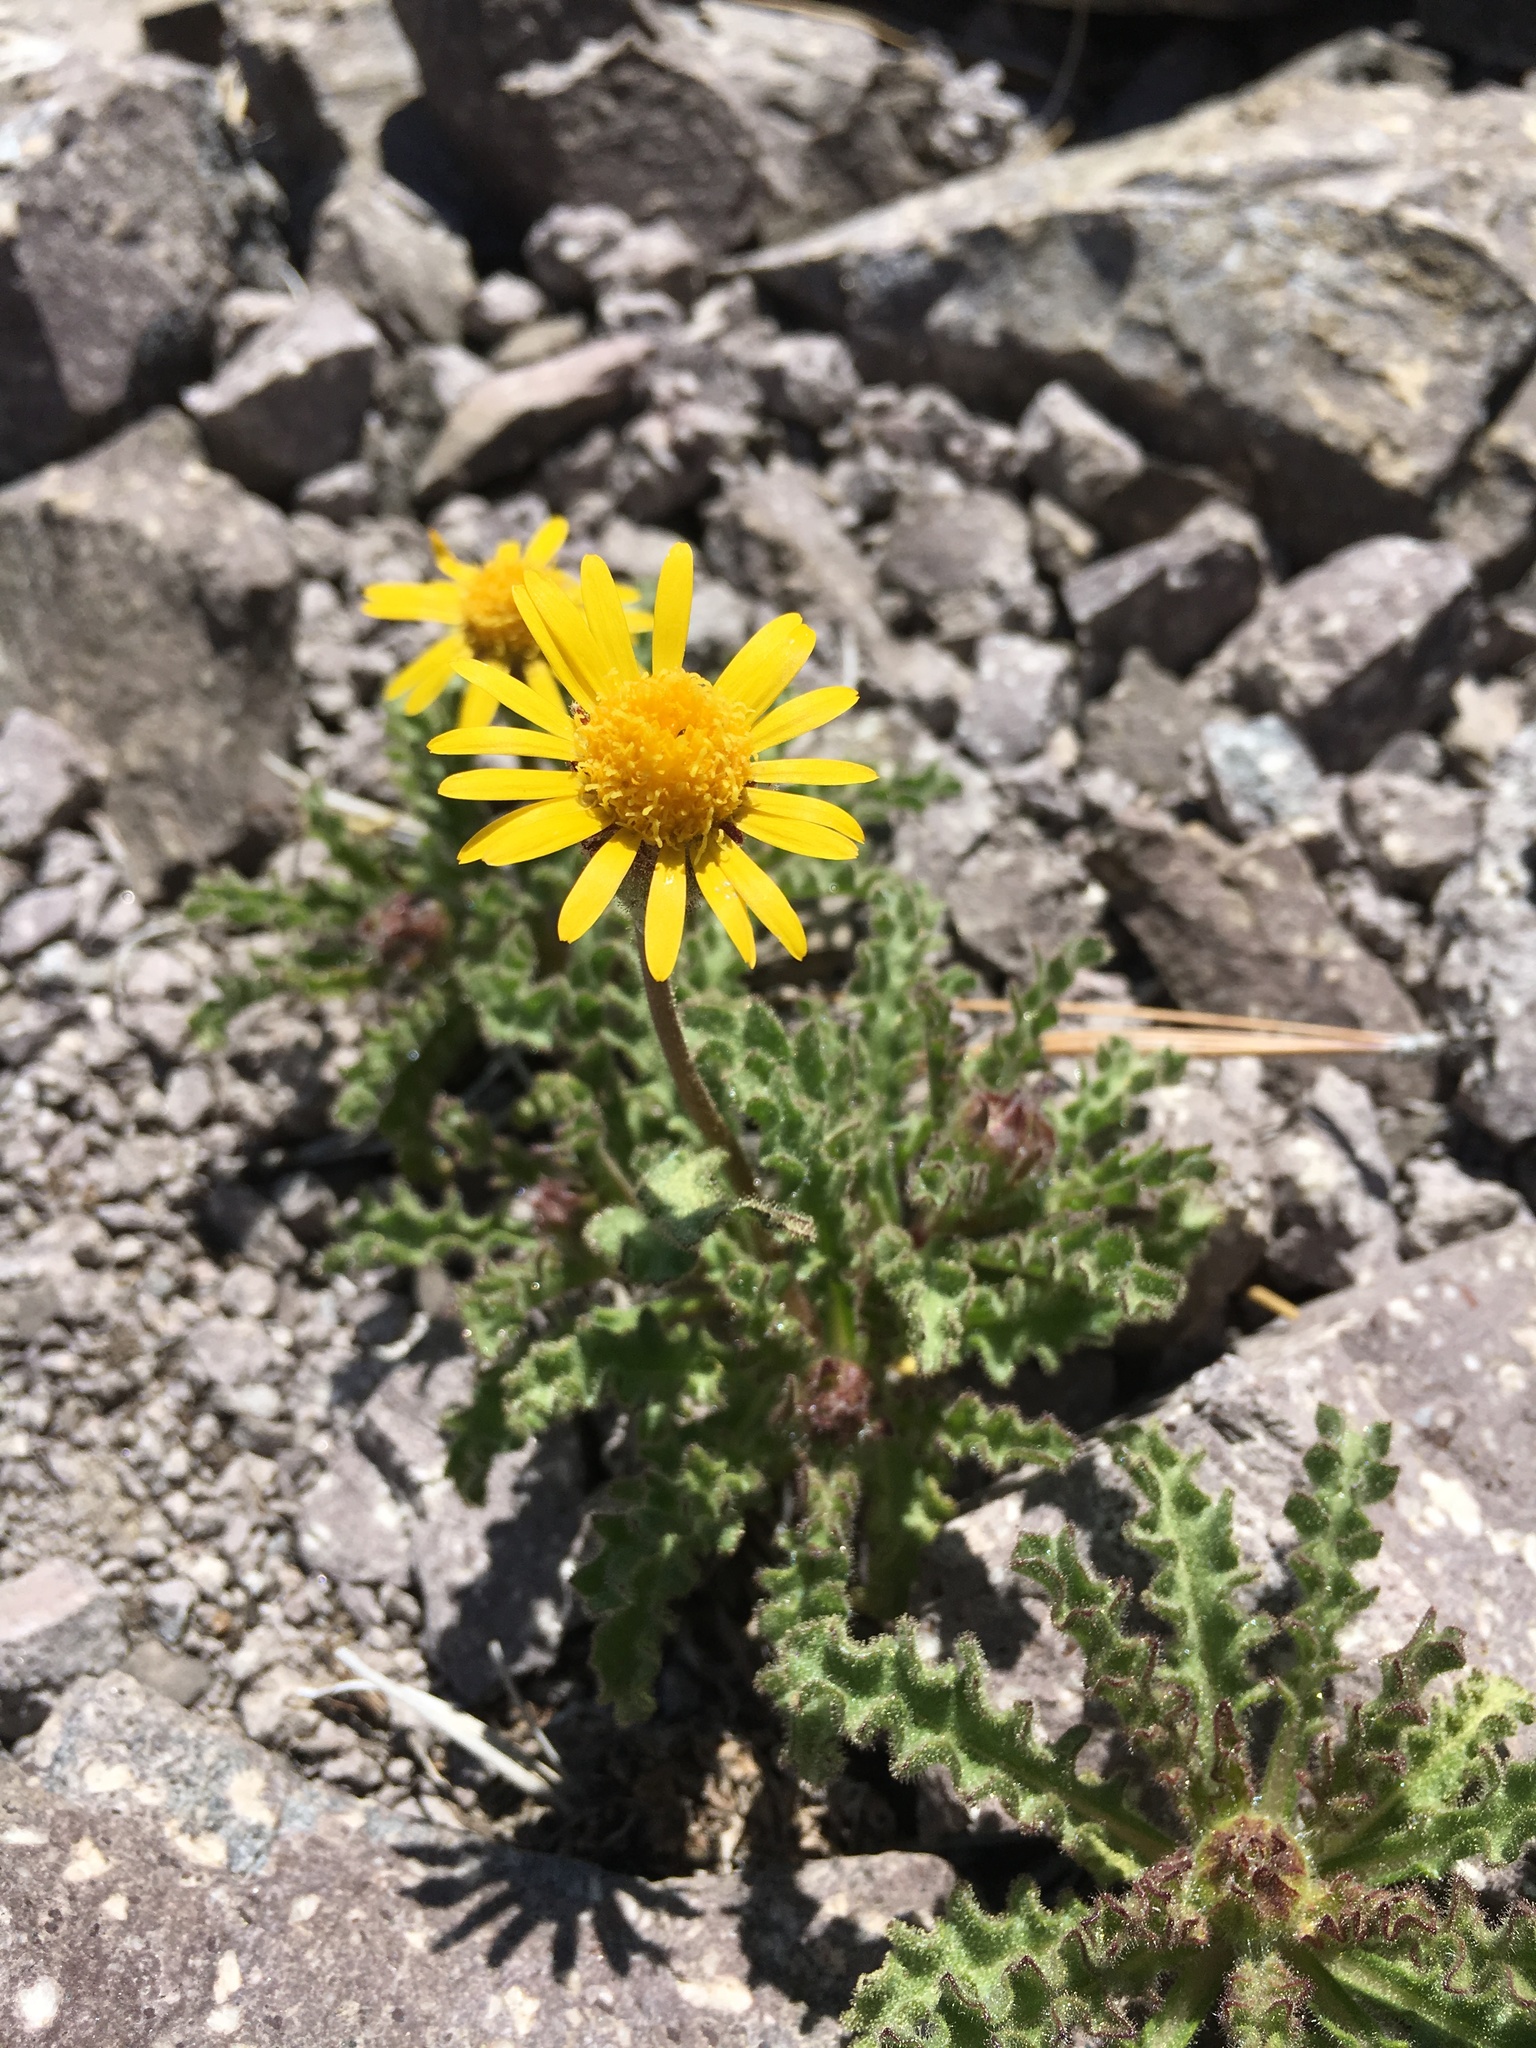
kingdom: Plantae
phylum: Tracheophyta
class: Magnoliopsida
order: Asterales
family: Asteraceae
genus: Hulsea
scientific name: Hulsea nana
